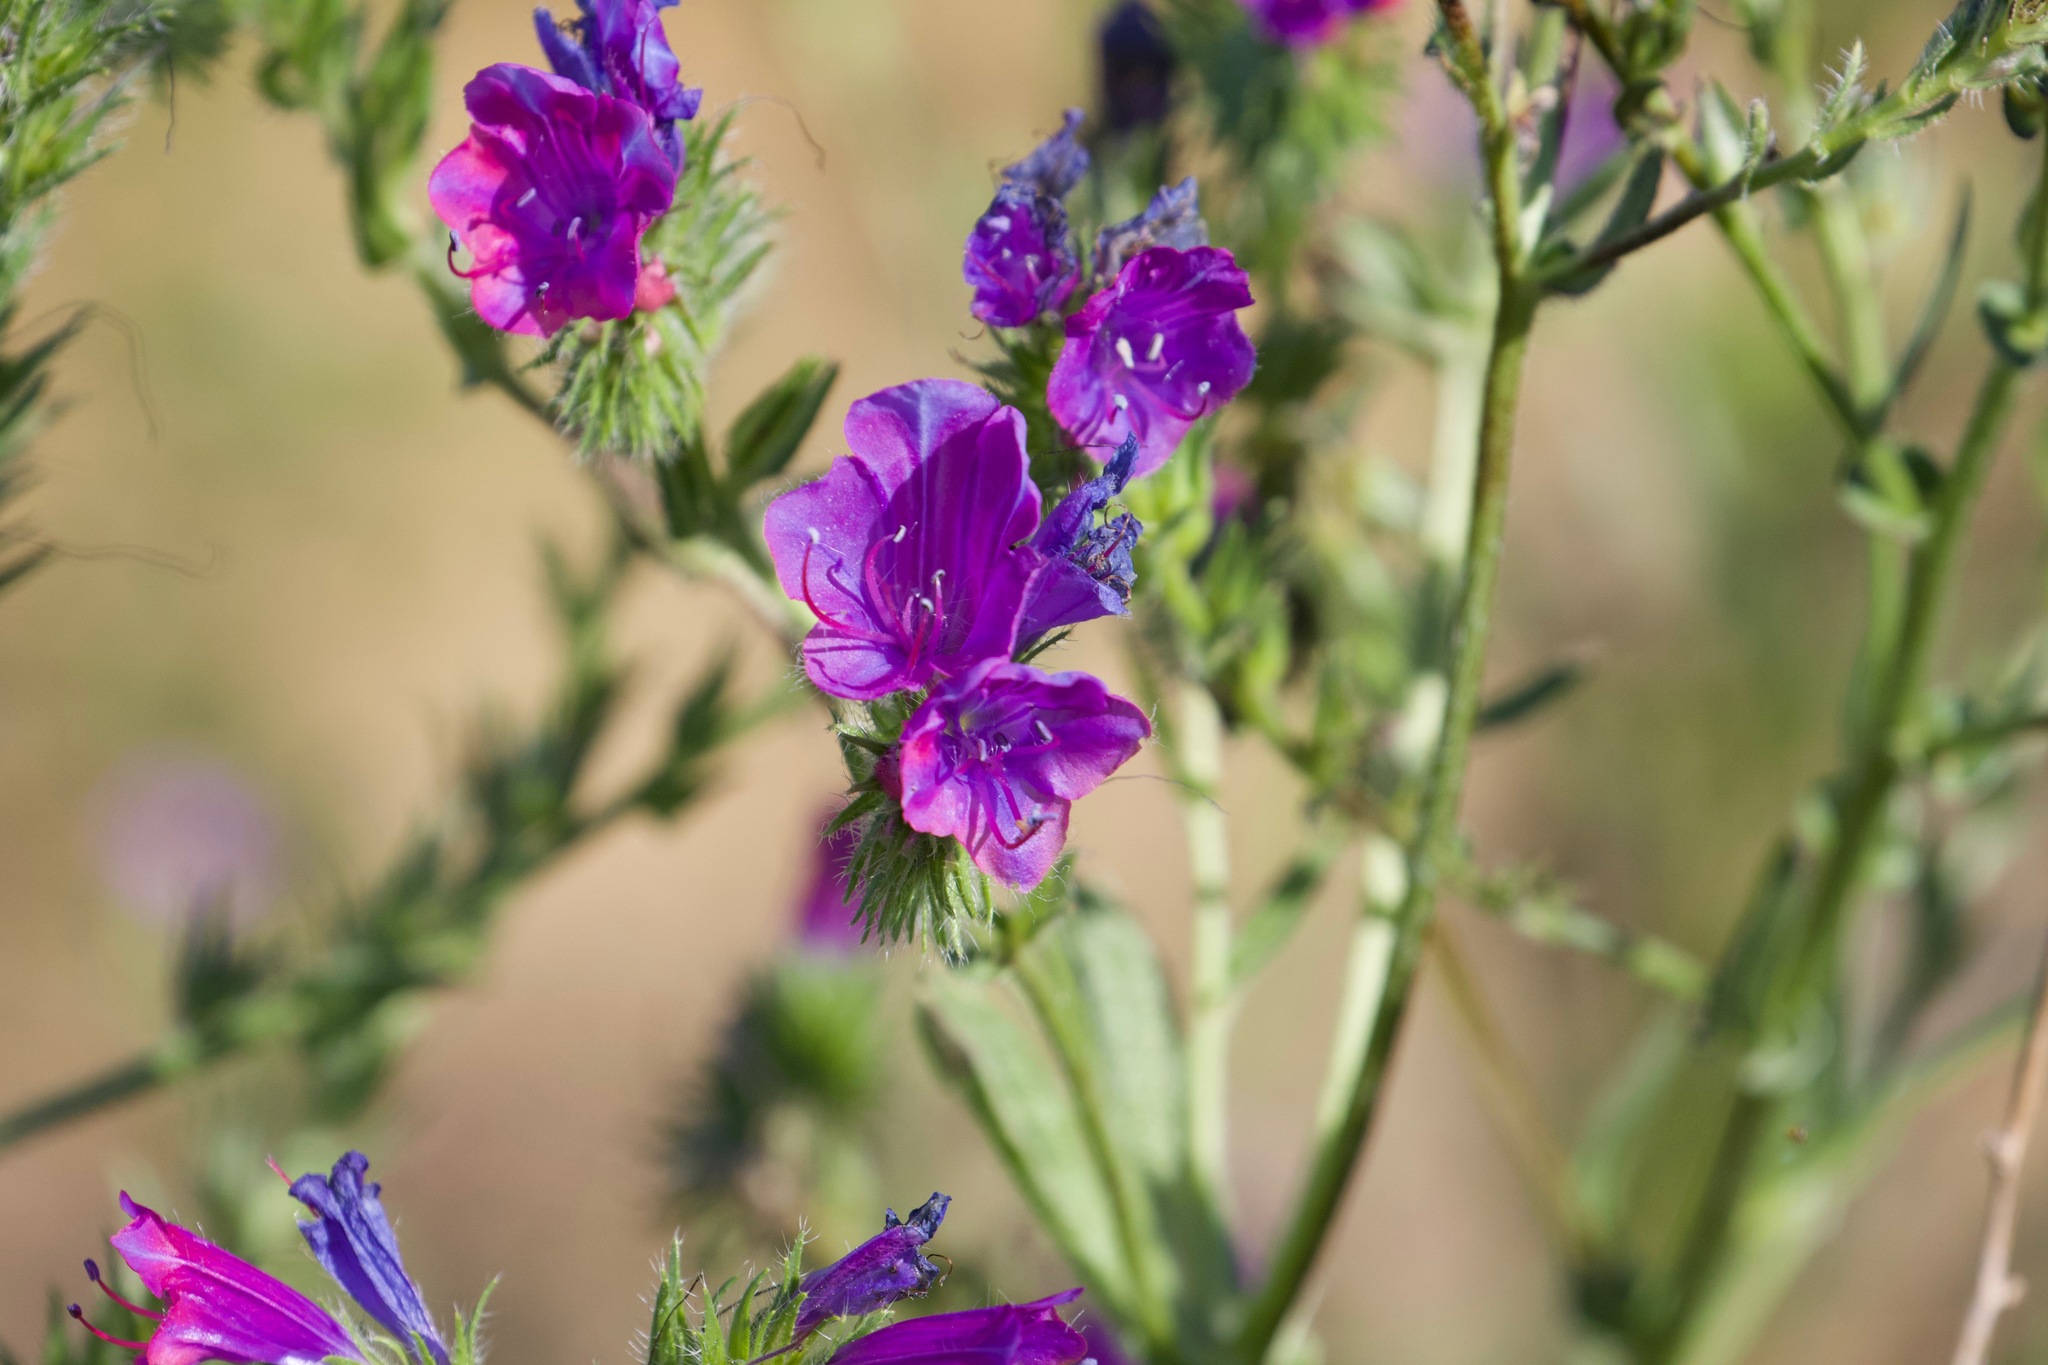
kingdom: Plantae
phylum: Tracheophyta
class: Magnoliopsida
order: Boraginales
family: Boraginaceae
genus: Echium
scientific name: Echium plantagineum
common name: Purple viper's-bugloss
